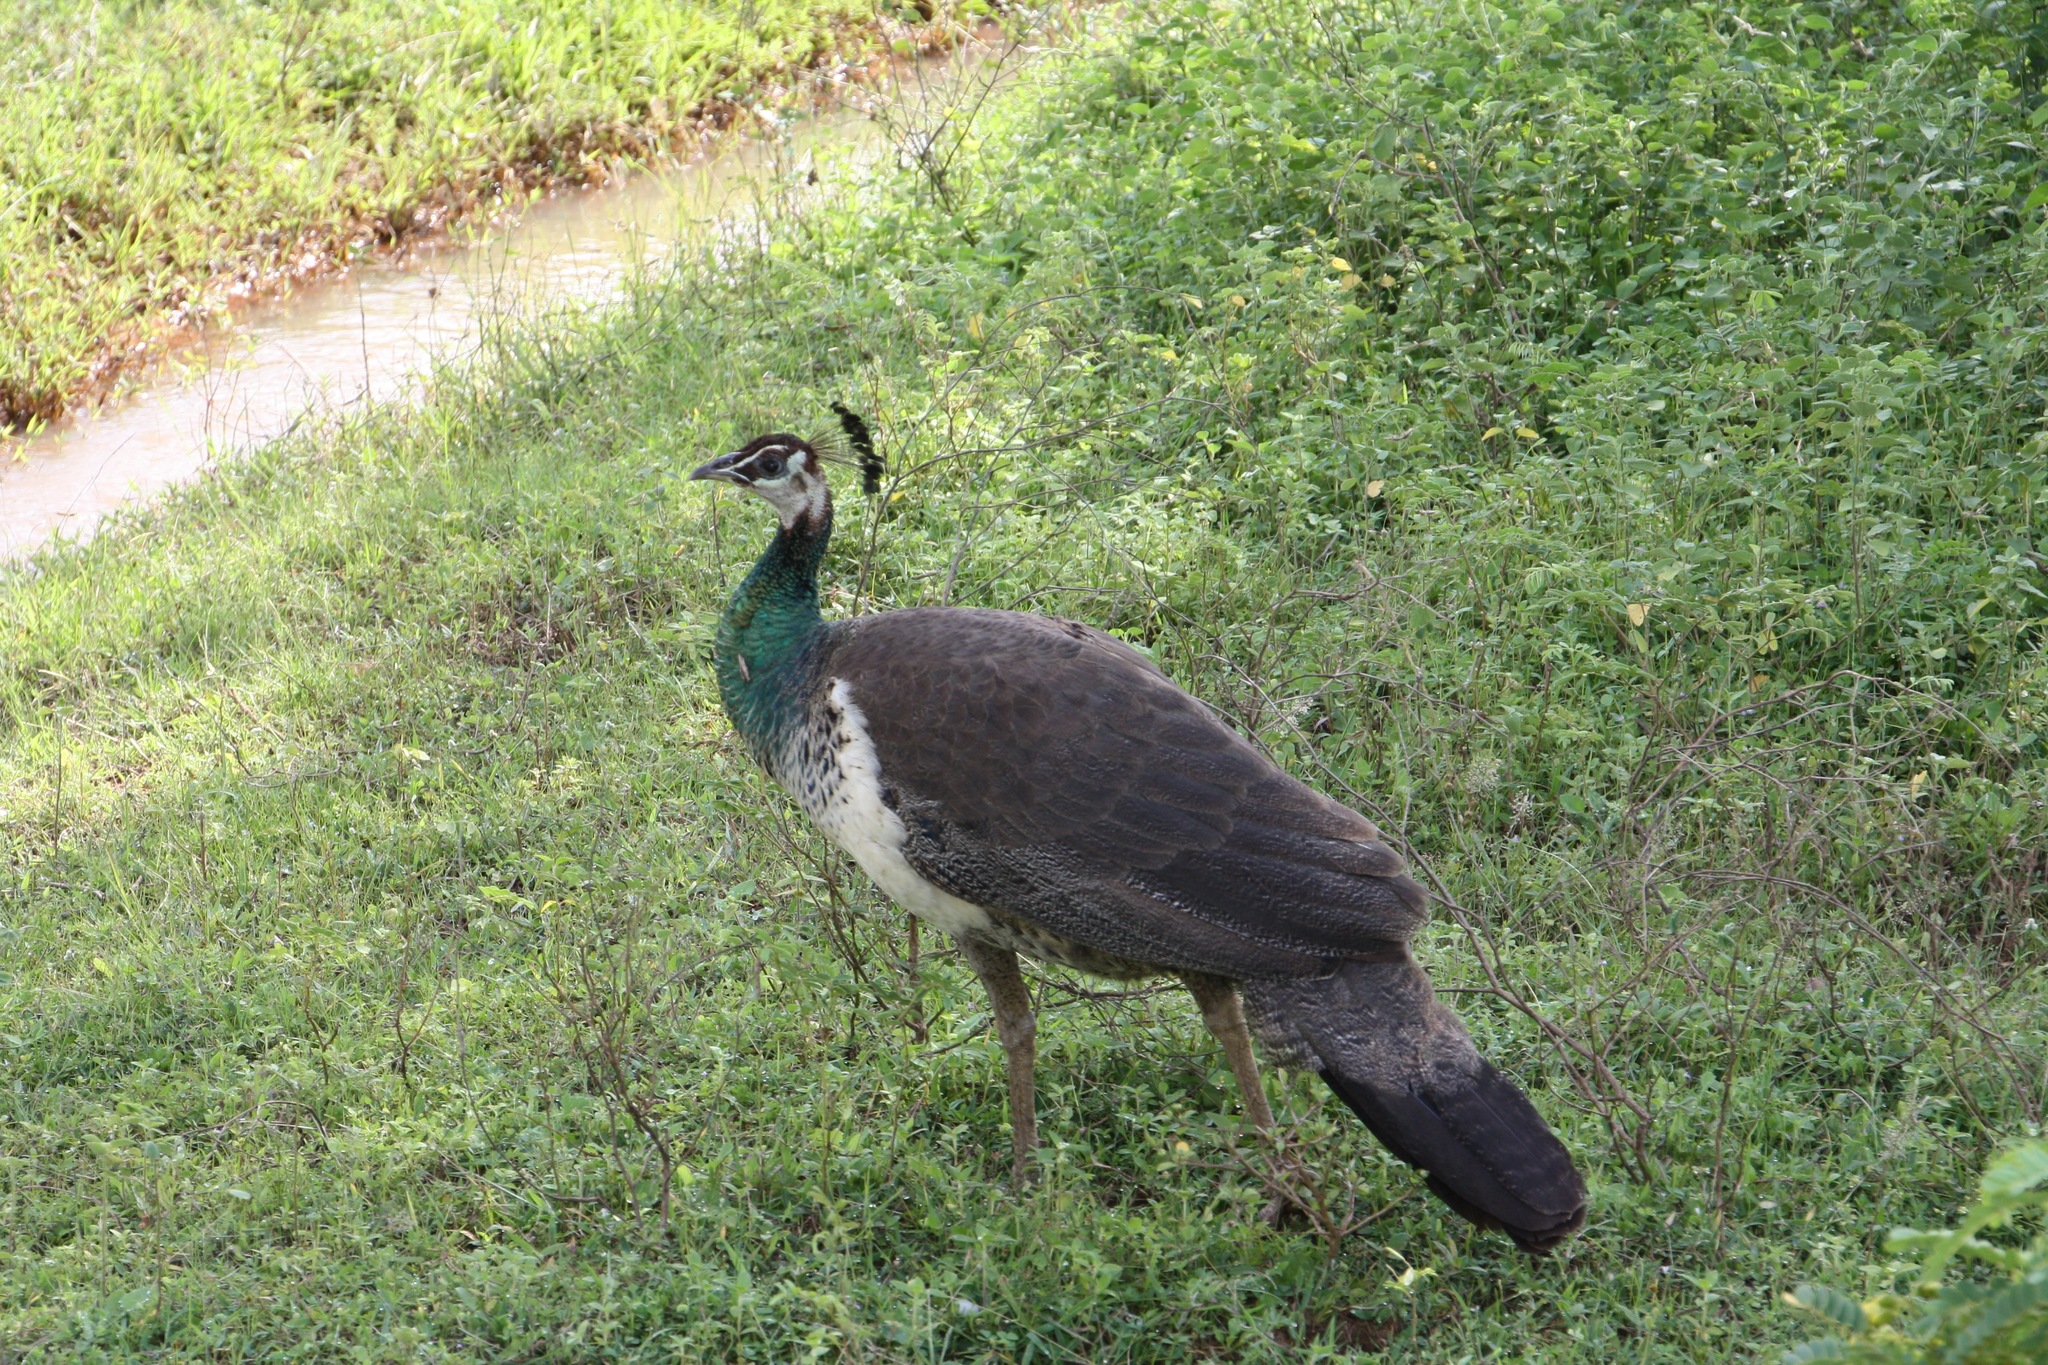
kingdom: Animalia
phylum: Chordata
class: Aves
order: Galliformes
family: Phasianidae
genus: Pavo
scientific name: Pavo cristatus
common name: Indian peafowl
